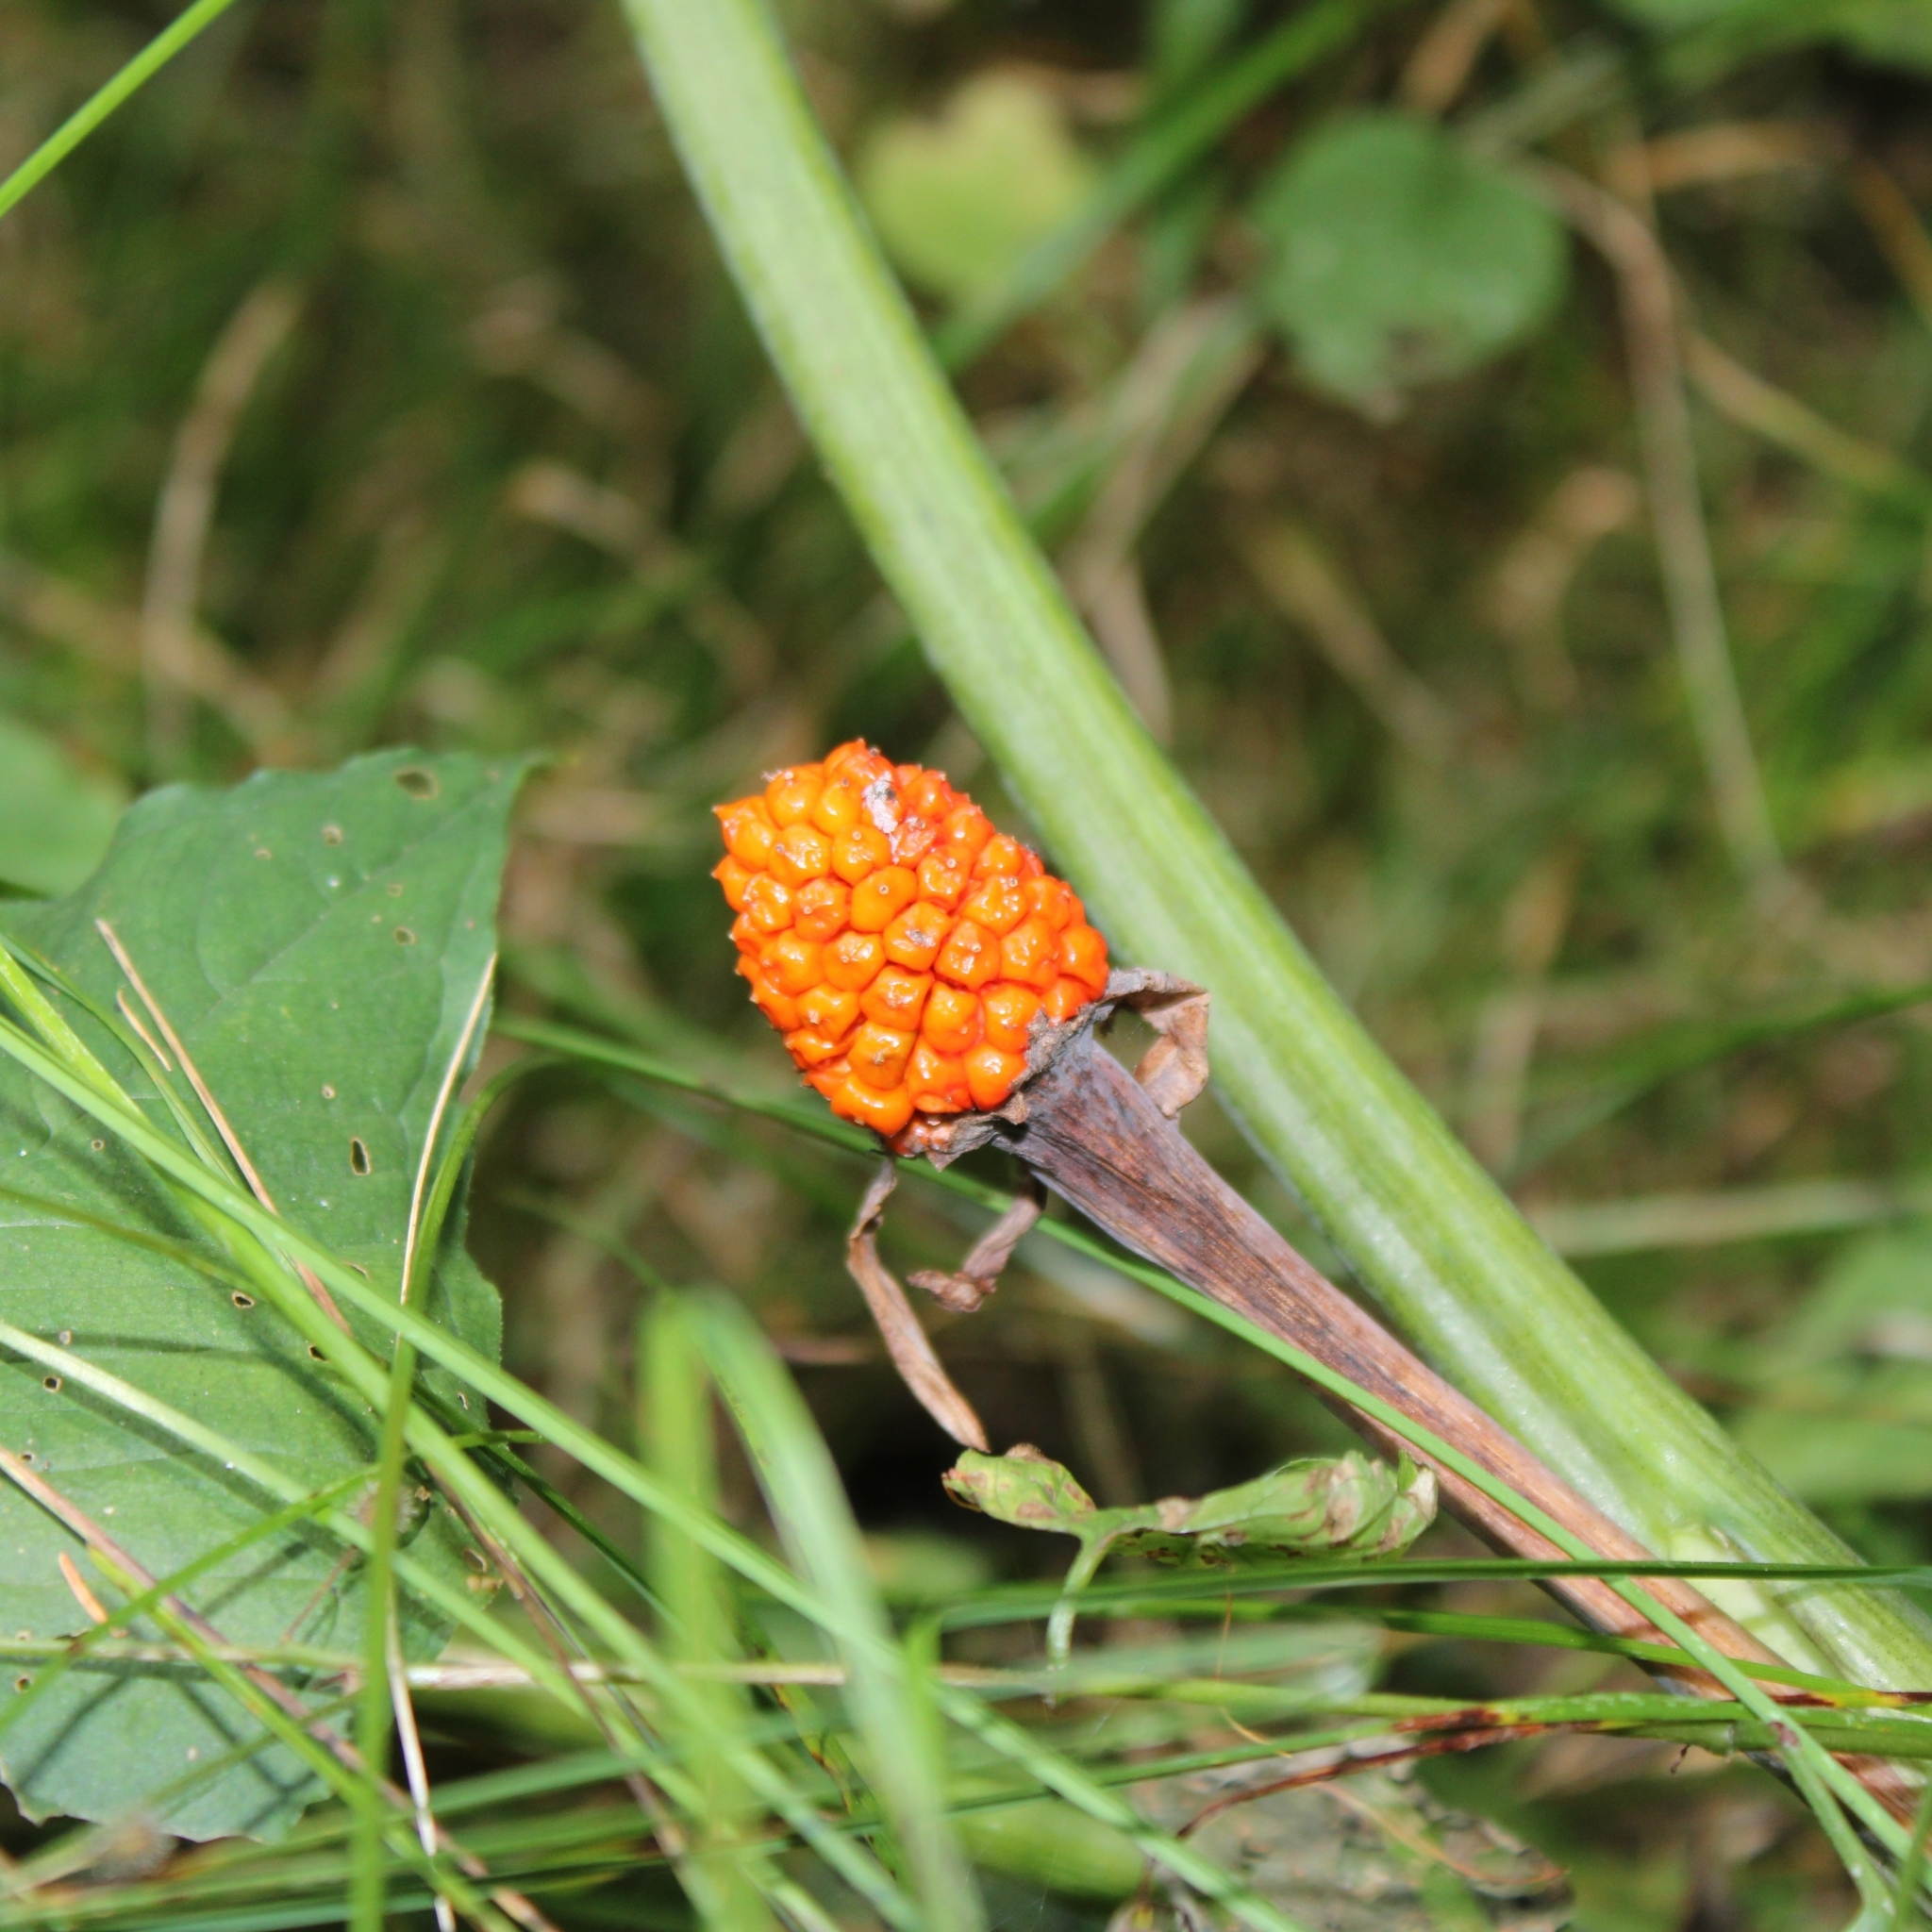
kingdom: Plantae
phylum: Tracheophyta
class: Liliopsida
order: Alismatales
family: Araceae
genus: Arisaema
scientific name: Arisaema triphyllum
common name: Jack-in-the-pulpit
